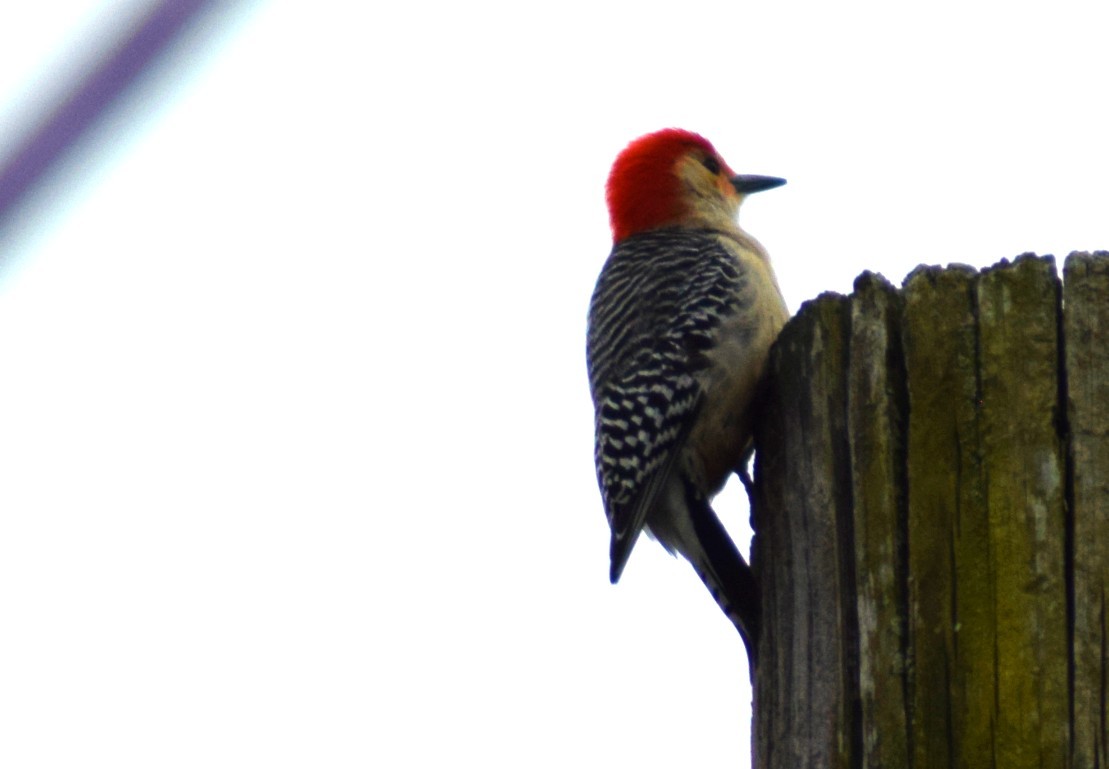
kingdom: Animalia
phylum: Chordata
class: Aves
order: Piciformes
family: Picidae
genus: Melanerpes
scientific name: Melanerpes carolinus
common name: Red-bellied woodpecker
